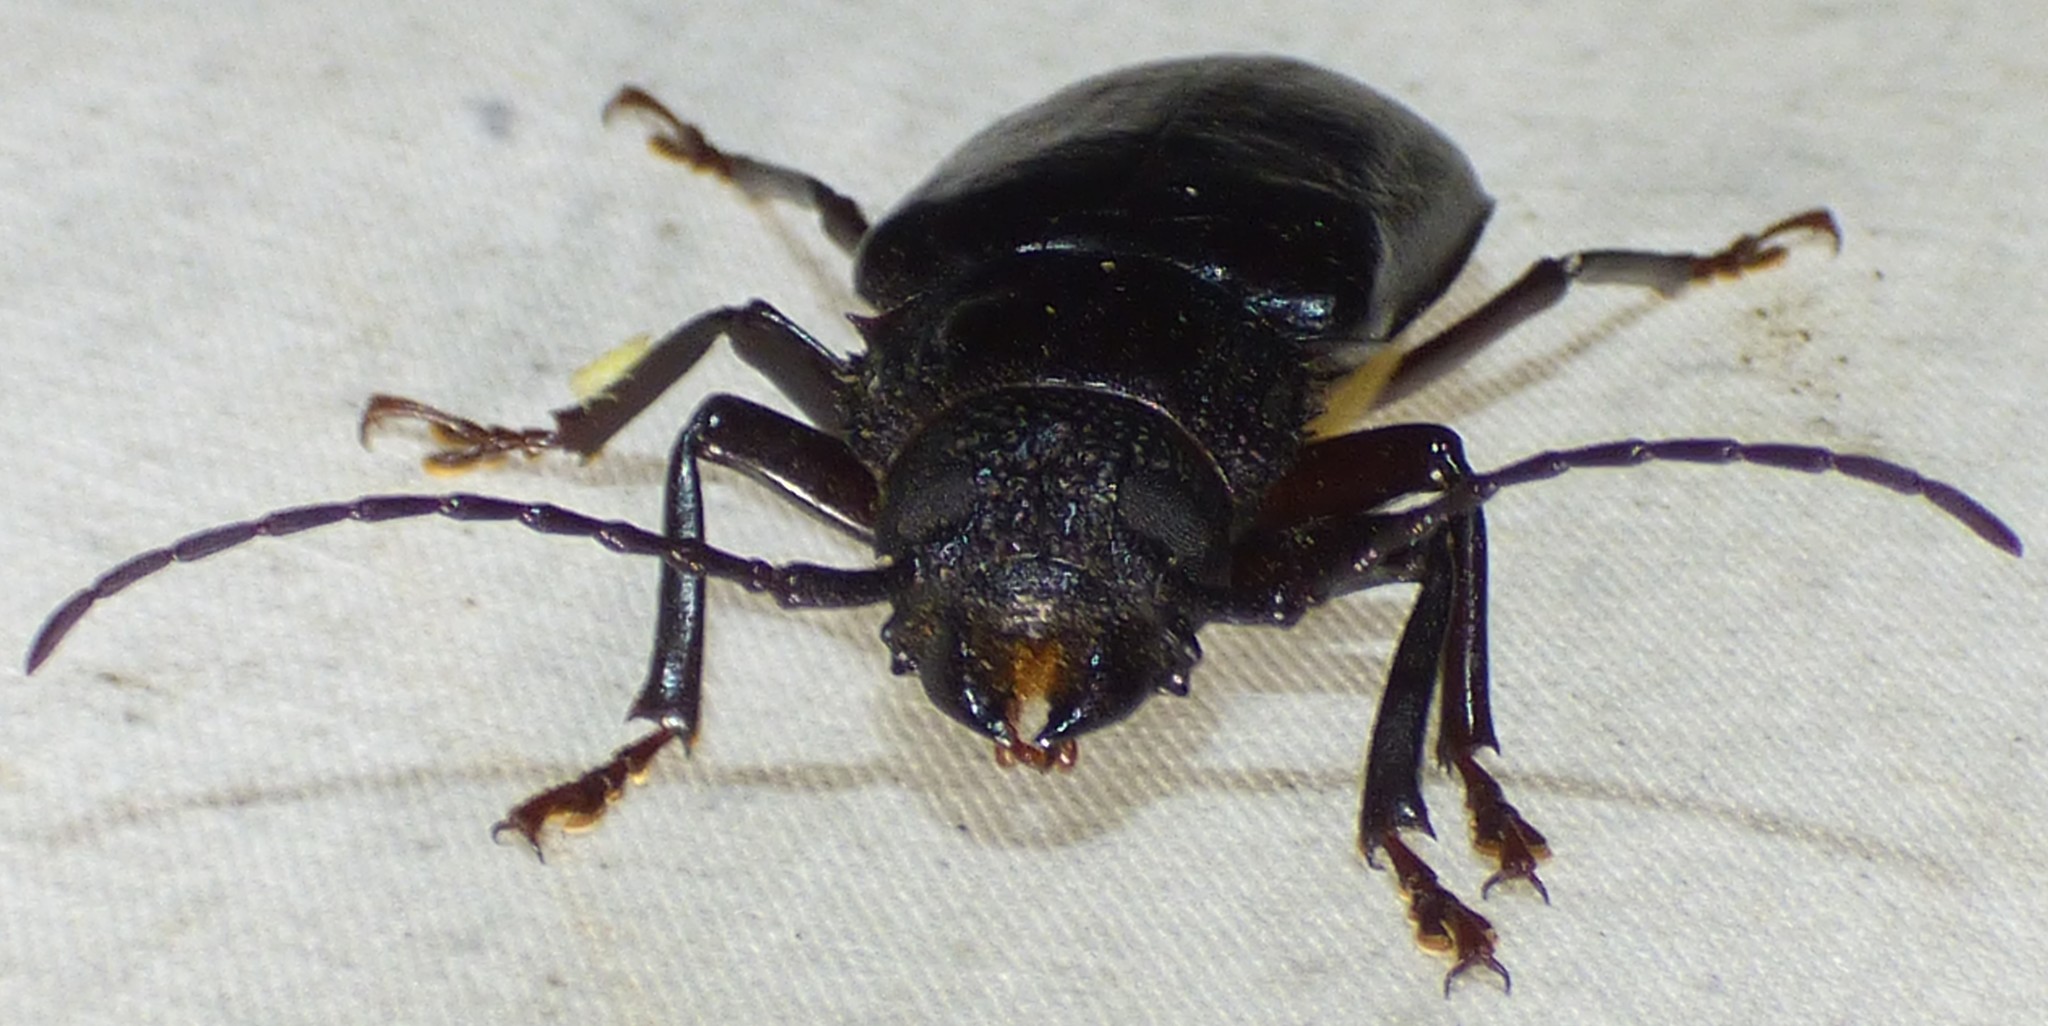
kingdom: Animalia
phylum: Arthropoda
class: Insecta
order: Coleoptera
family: Cerambycidae
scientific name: Cerambycidae
